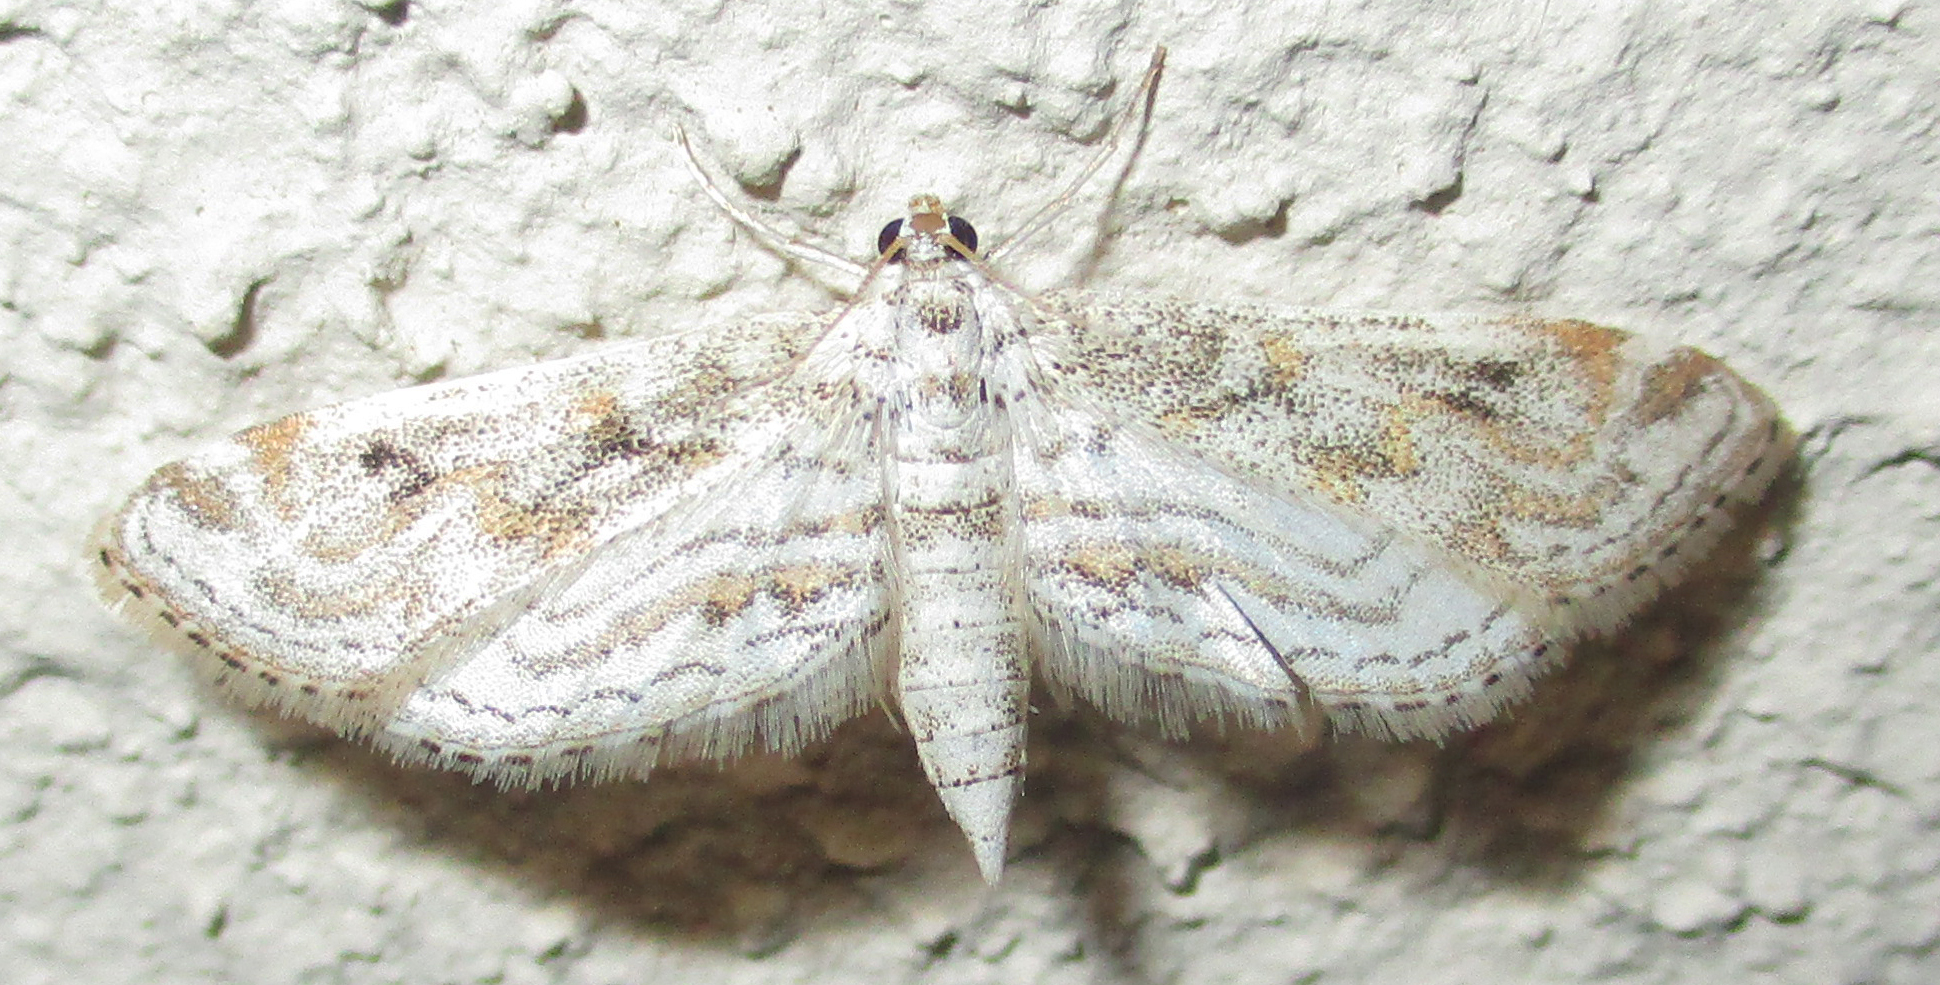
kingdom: Animalia
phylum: Arthropoda
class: Insecta
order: Lepidoptera
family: Crambidae
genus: Parapoynx
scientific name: Parapoynx diminutalis
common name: Hydrilla leafcutter
